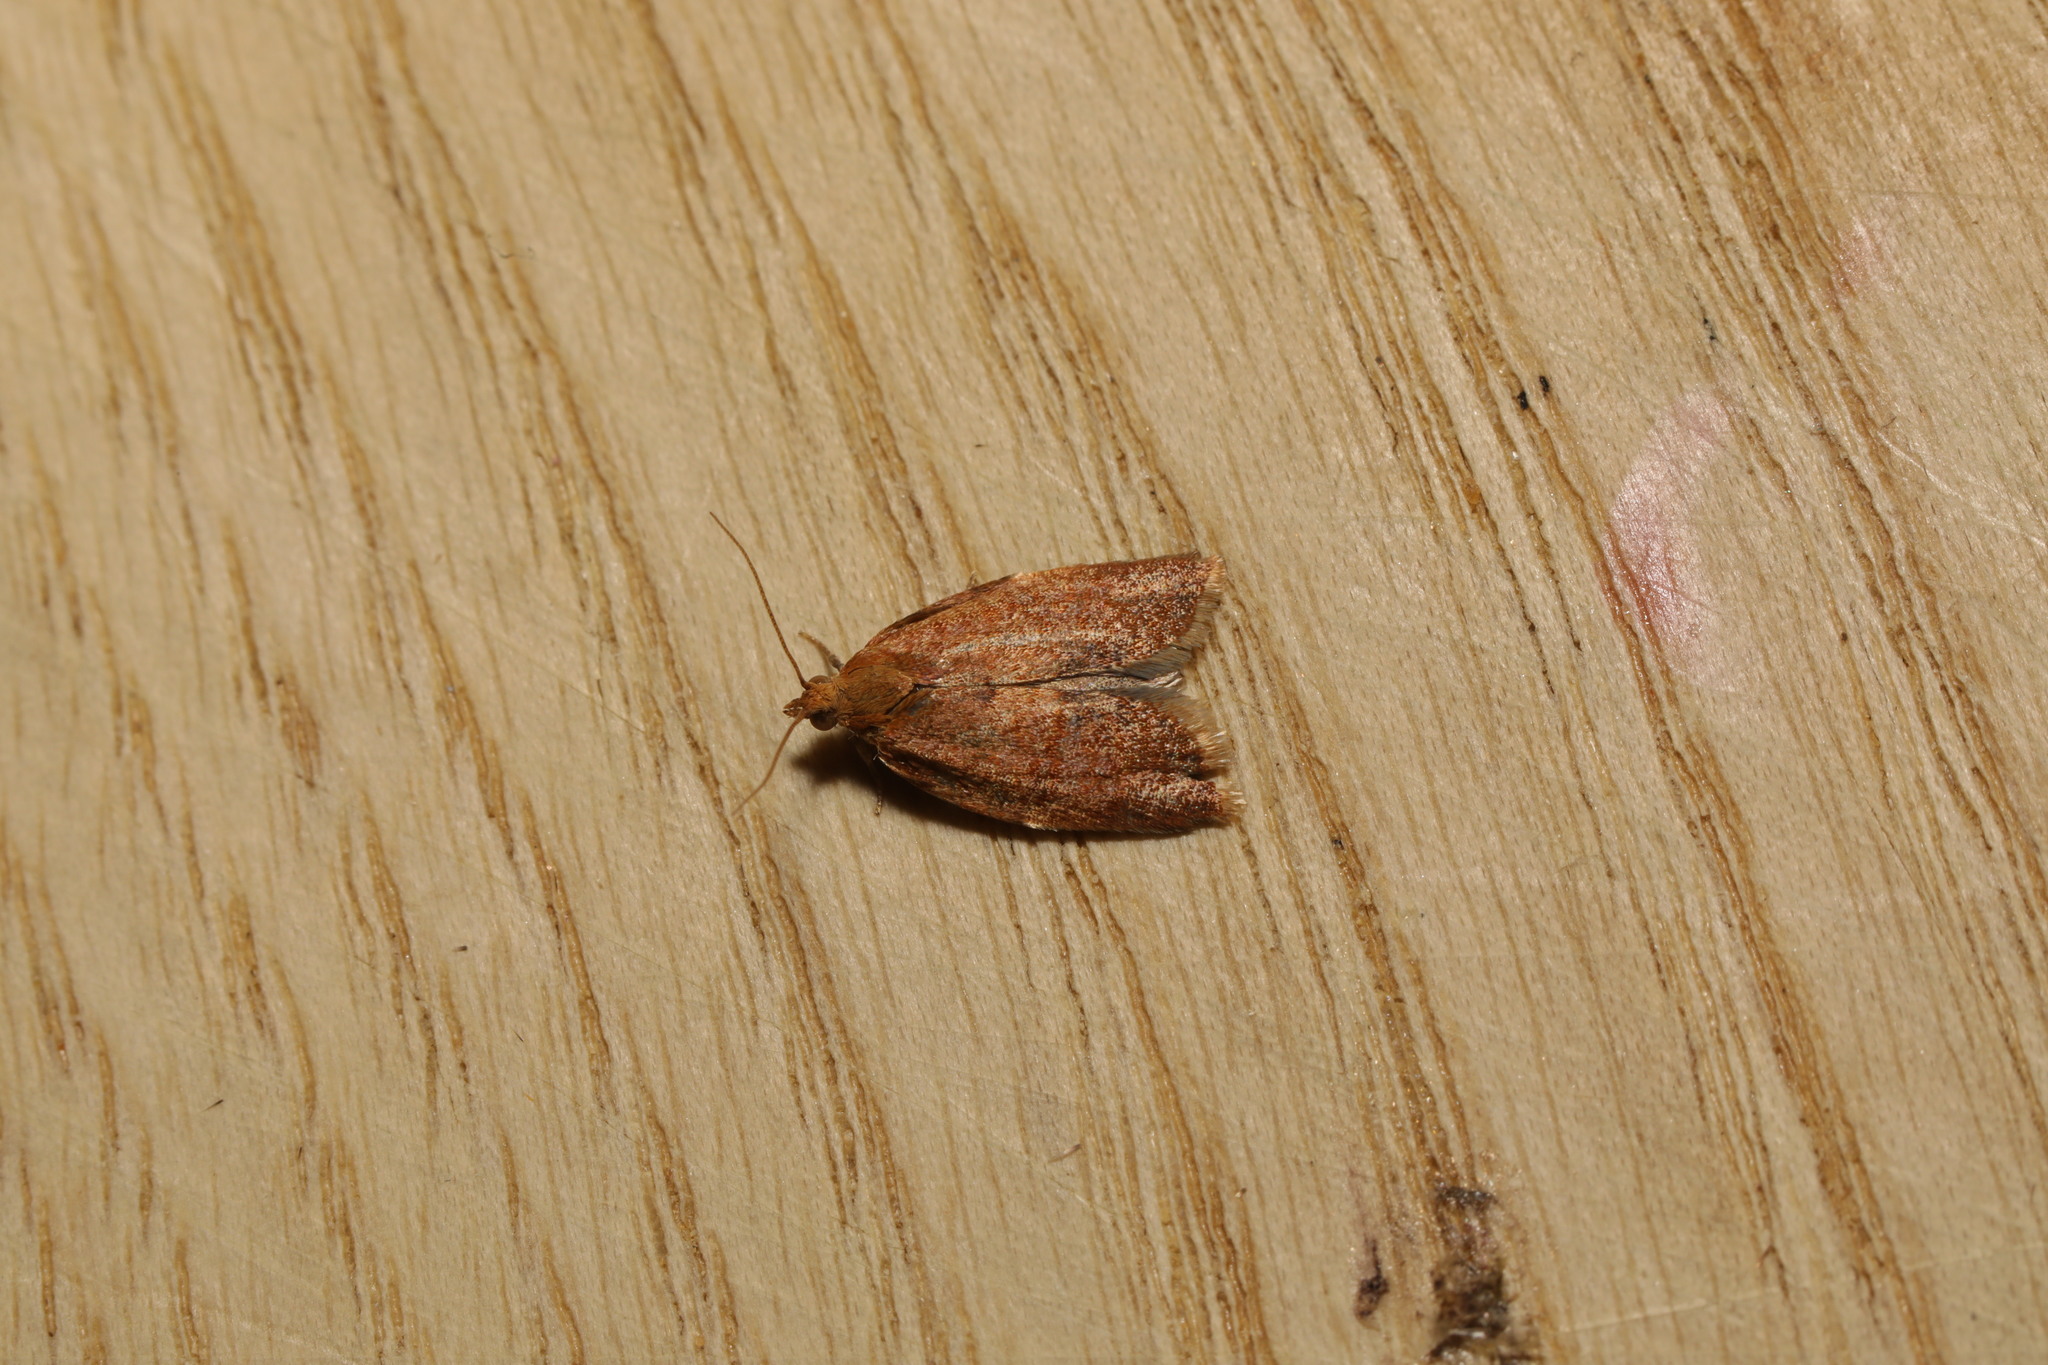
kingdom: Animalia
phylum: Arthropoda
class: Insecta
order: Lepidoptera
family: Tortricidae
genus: Clepsis
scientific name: Clepsis consimilana
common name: Privet tortrix
